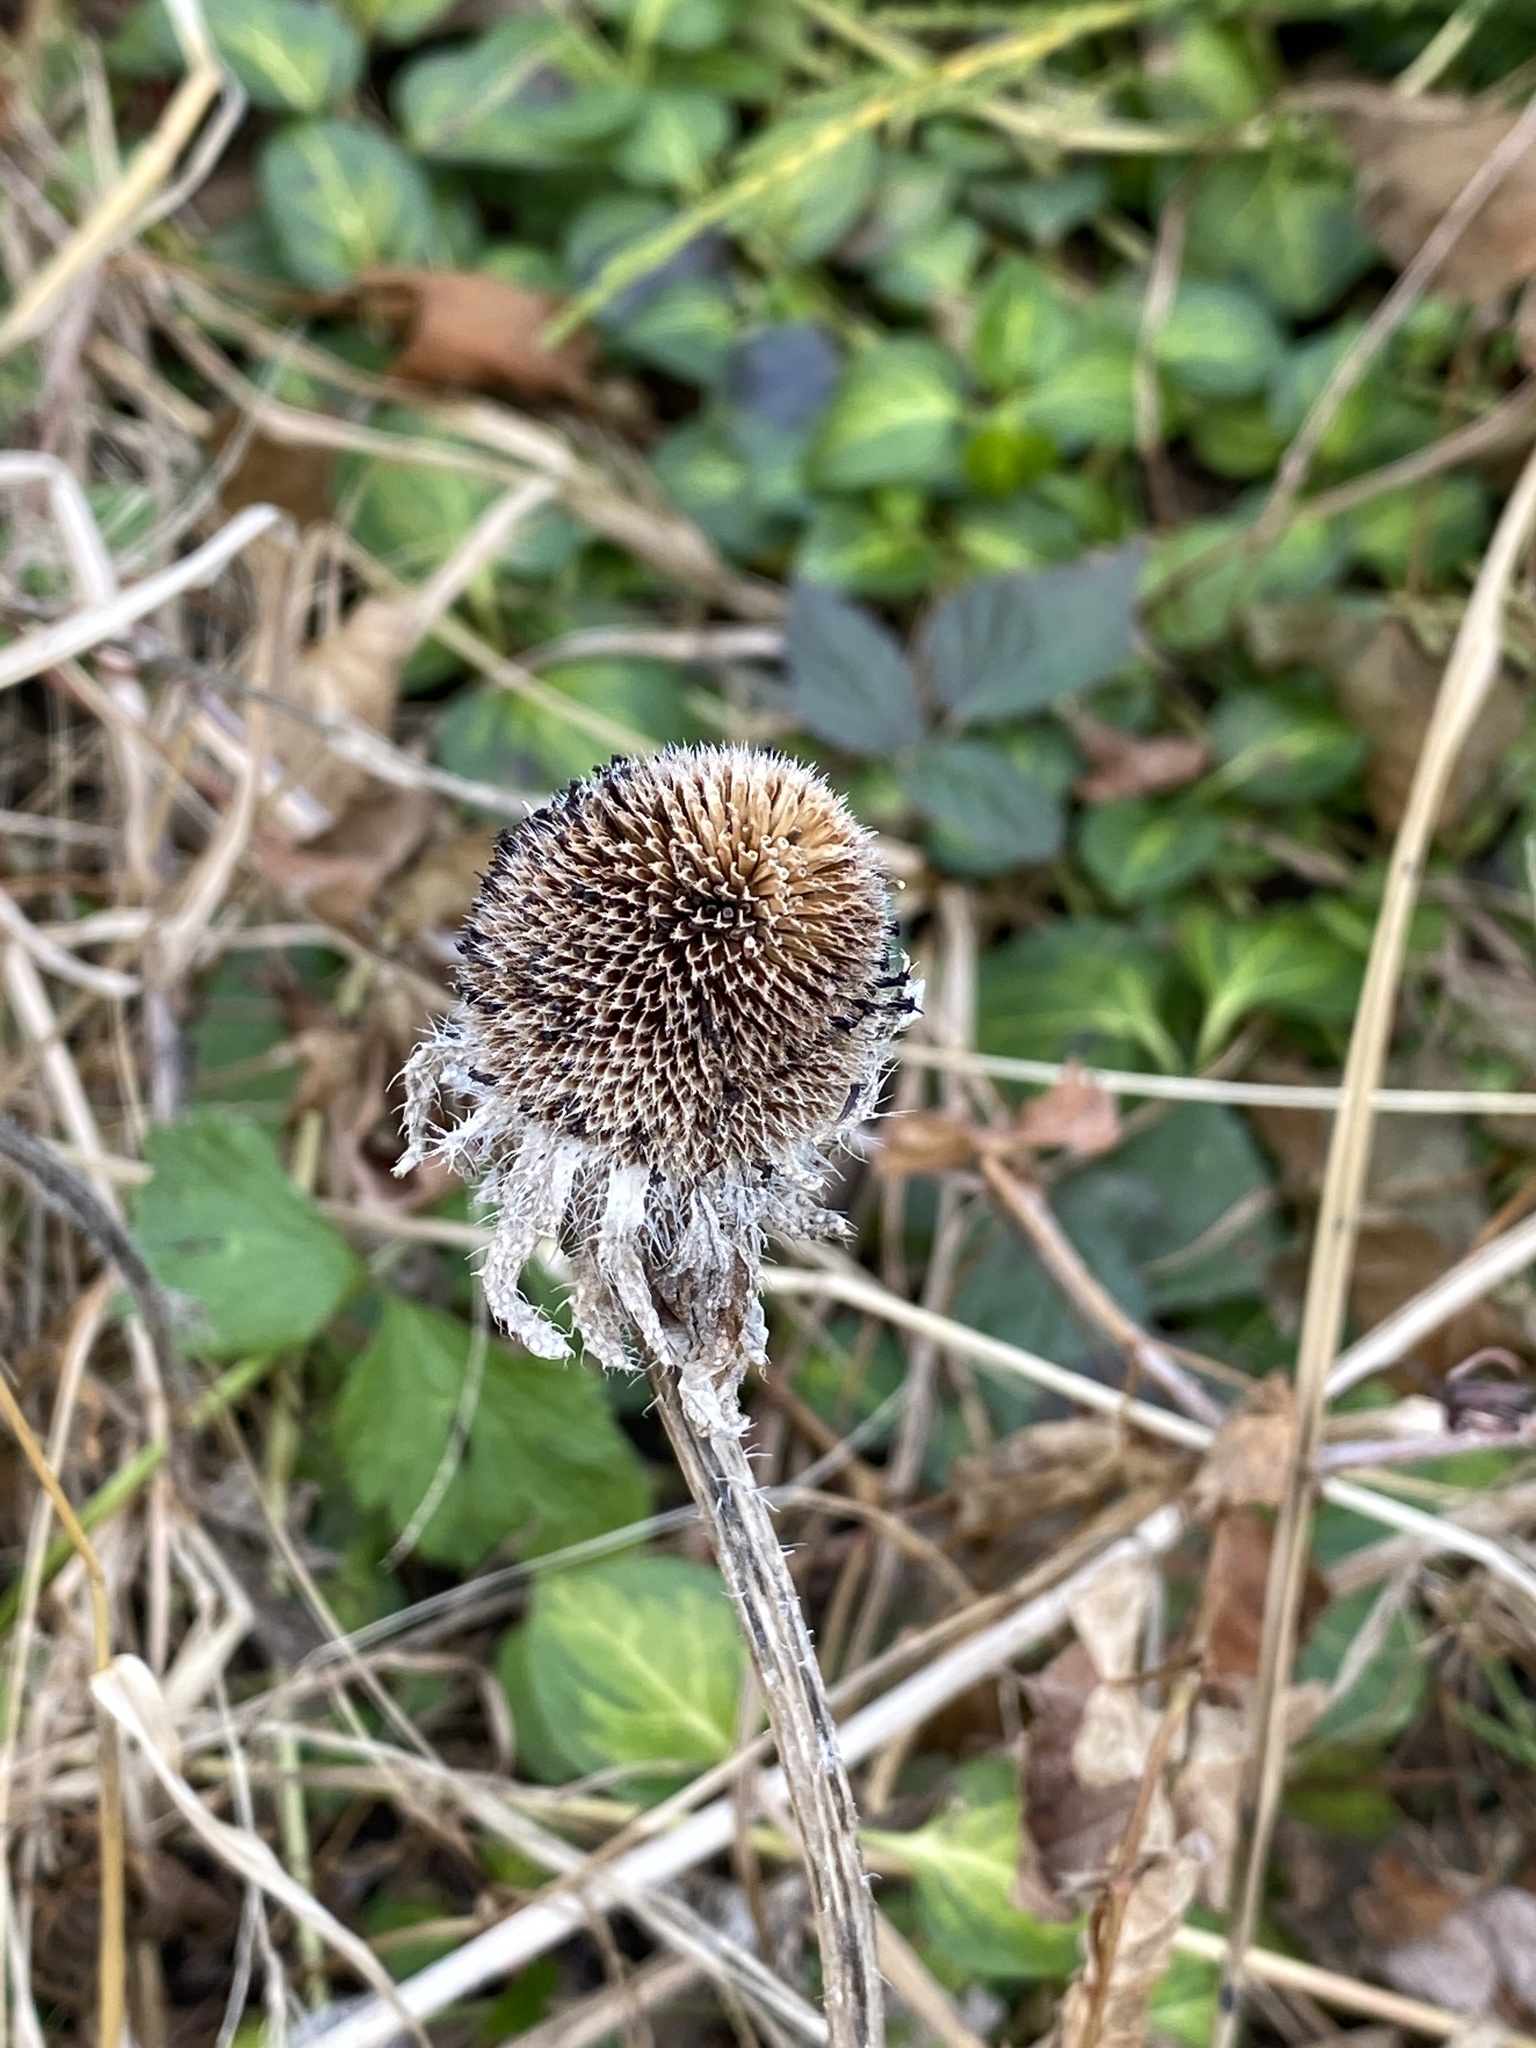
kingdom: Plantae
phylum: Tracheophyta
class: Magnoliopsida
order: Asterales
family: Asteraceae
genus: Rudbeckia
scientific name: Rudbeckia hirta
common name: Black-eyed-susan
